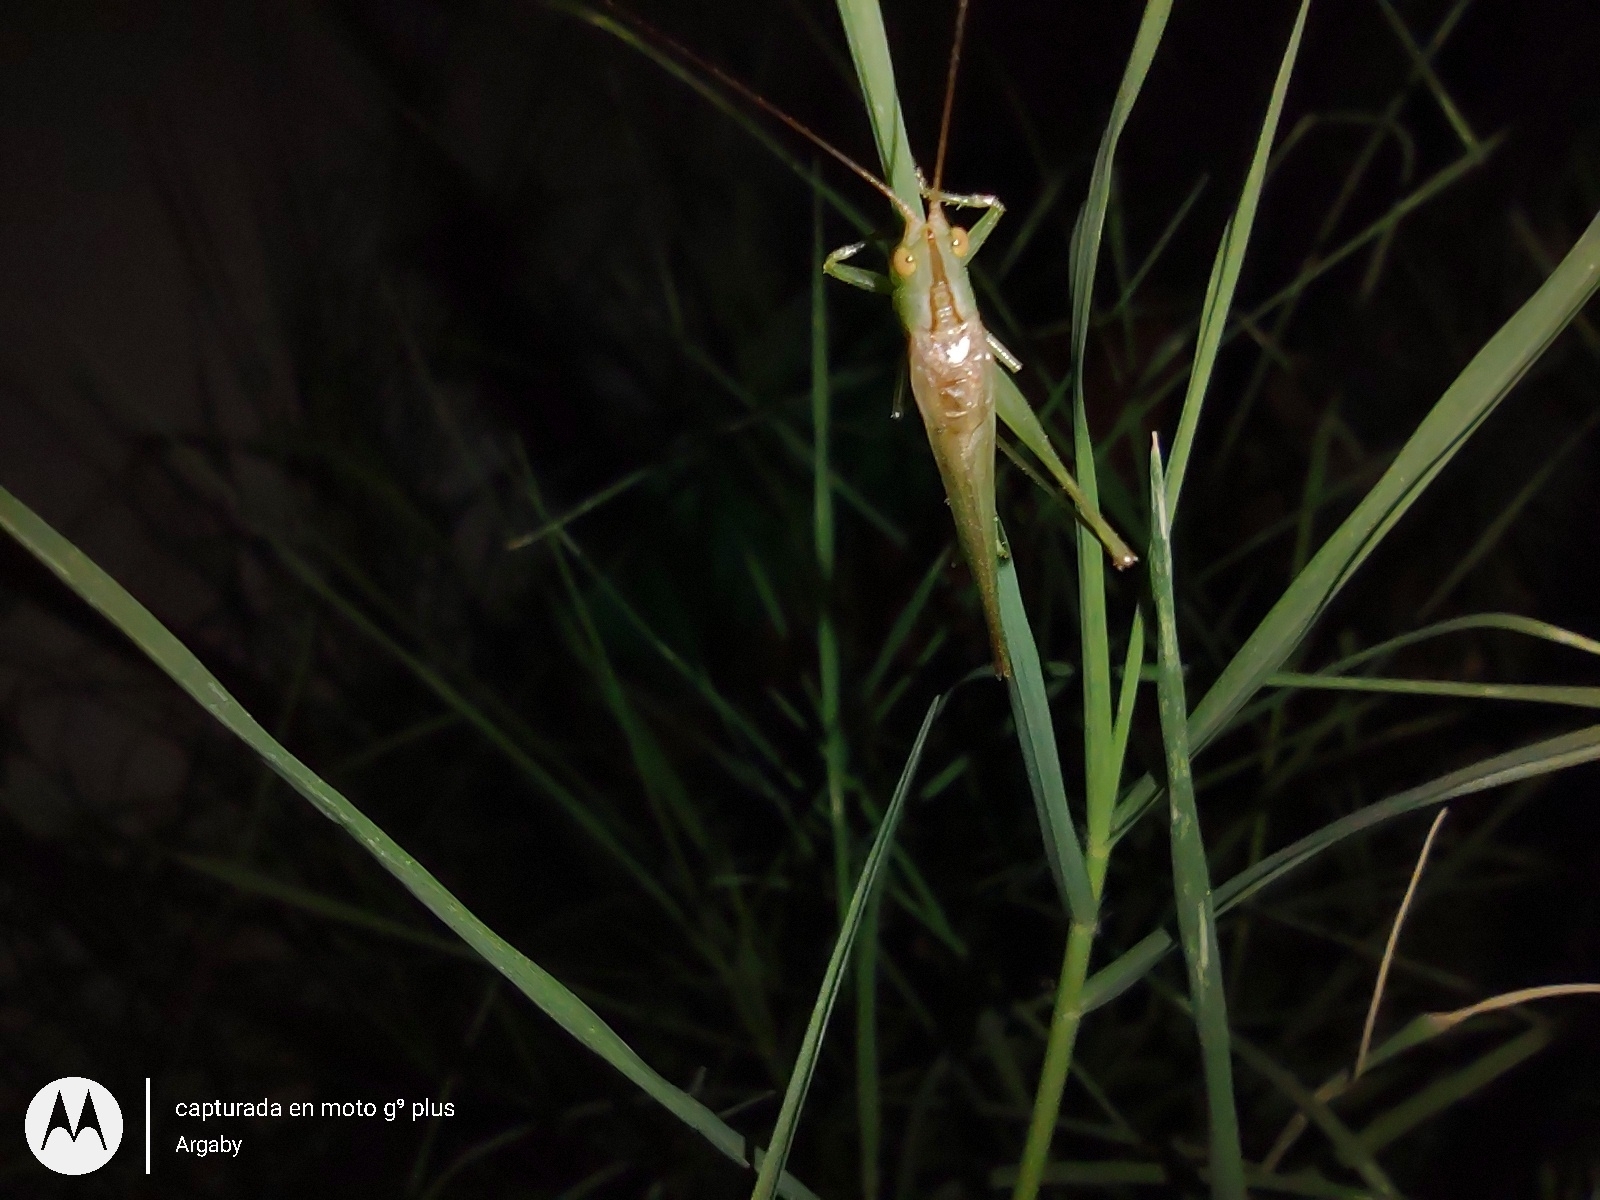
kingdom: Animalia
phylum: Arthropoda
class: Insecta
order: Orthoptera
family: Tettigoniidae
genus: Conocephalus
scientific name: Conocephalus longipes
